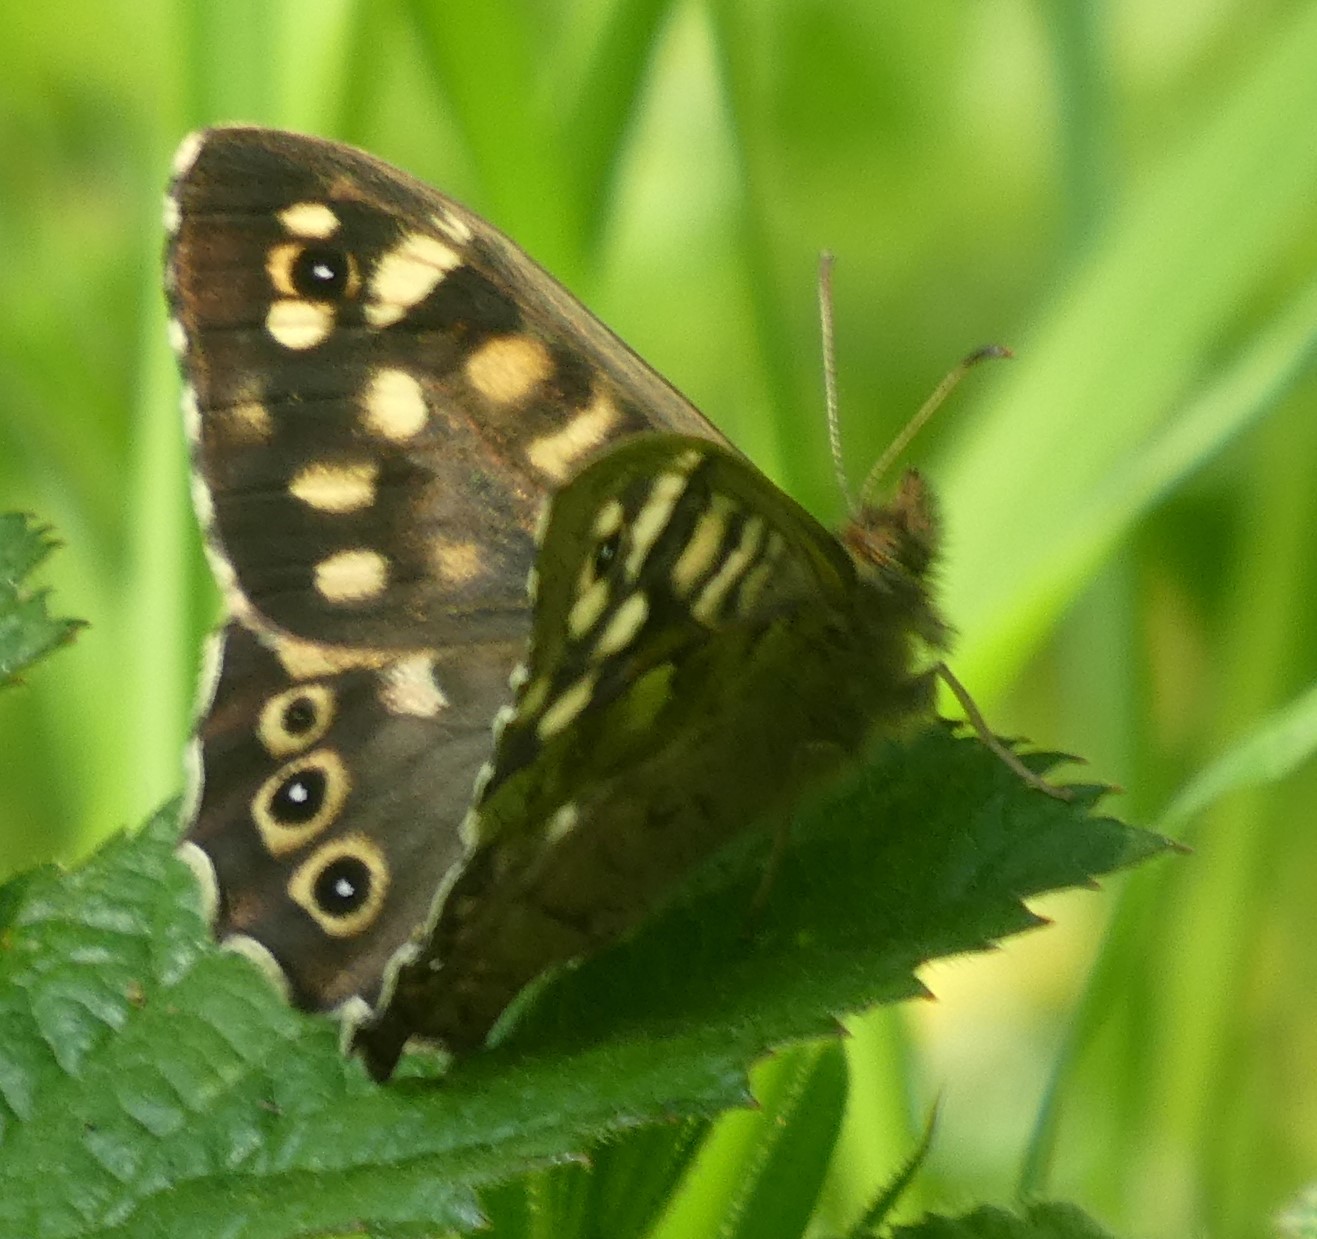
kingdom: Animalia
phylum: Arthropoda
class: Insecta
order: Lepidoptera
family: Nymphalidae
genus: Pararge
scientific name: Pararge aegeria
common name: Speckled wood
